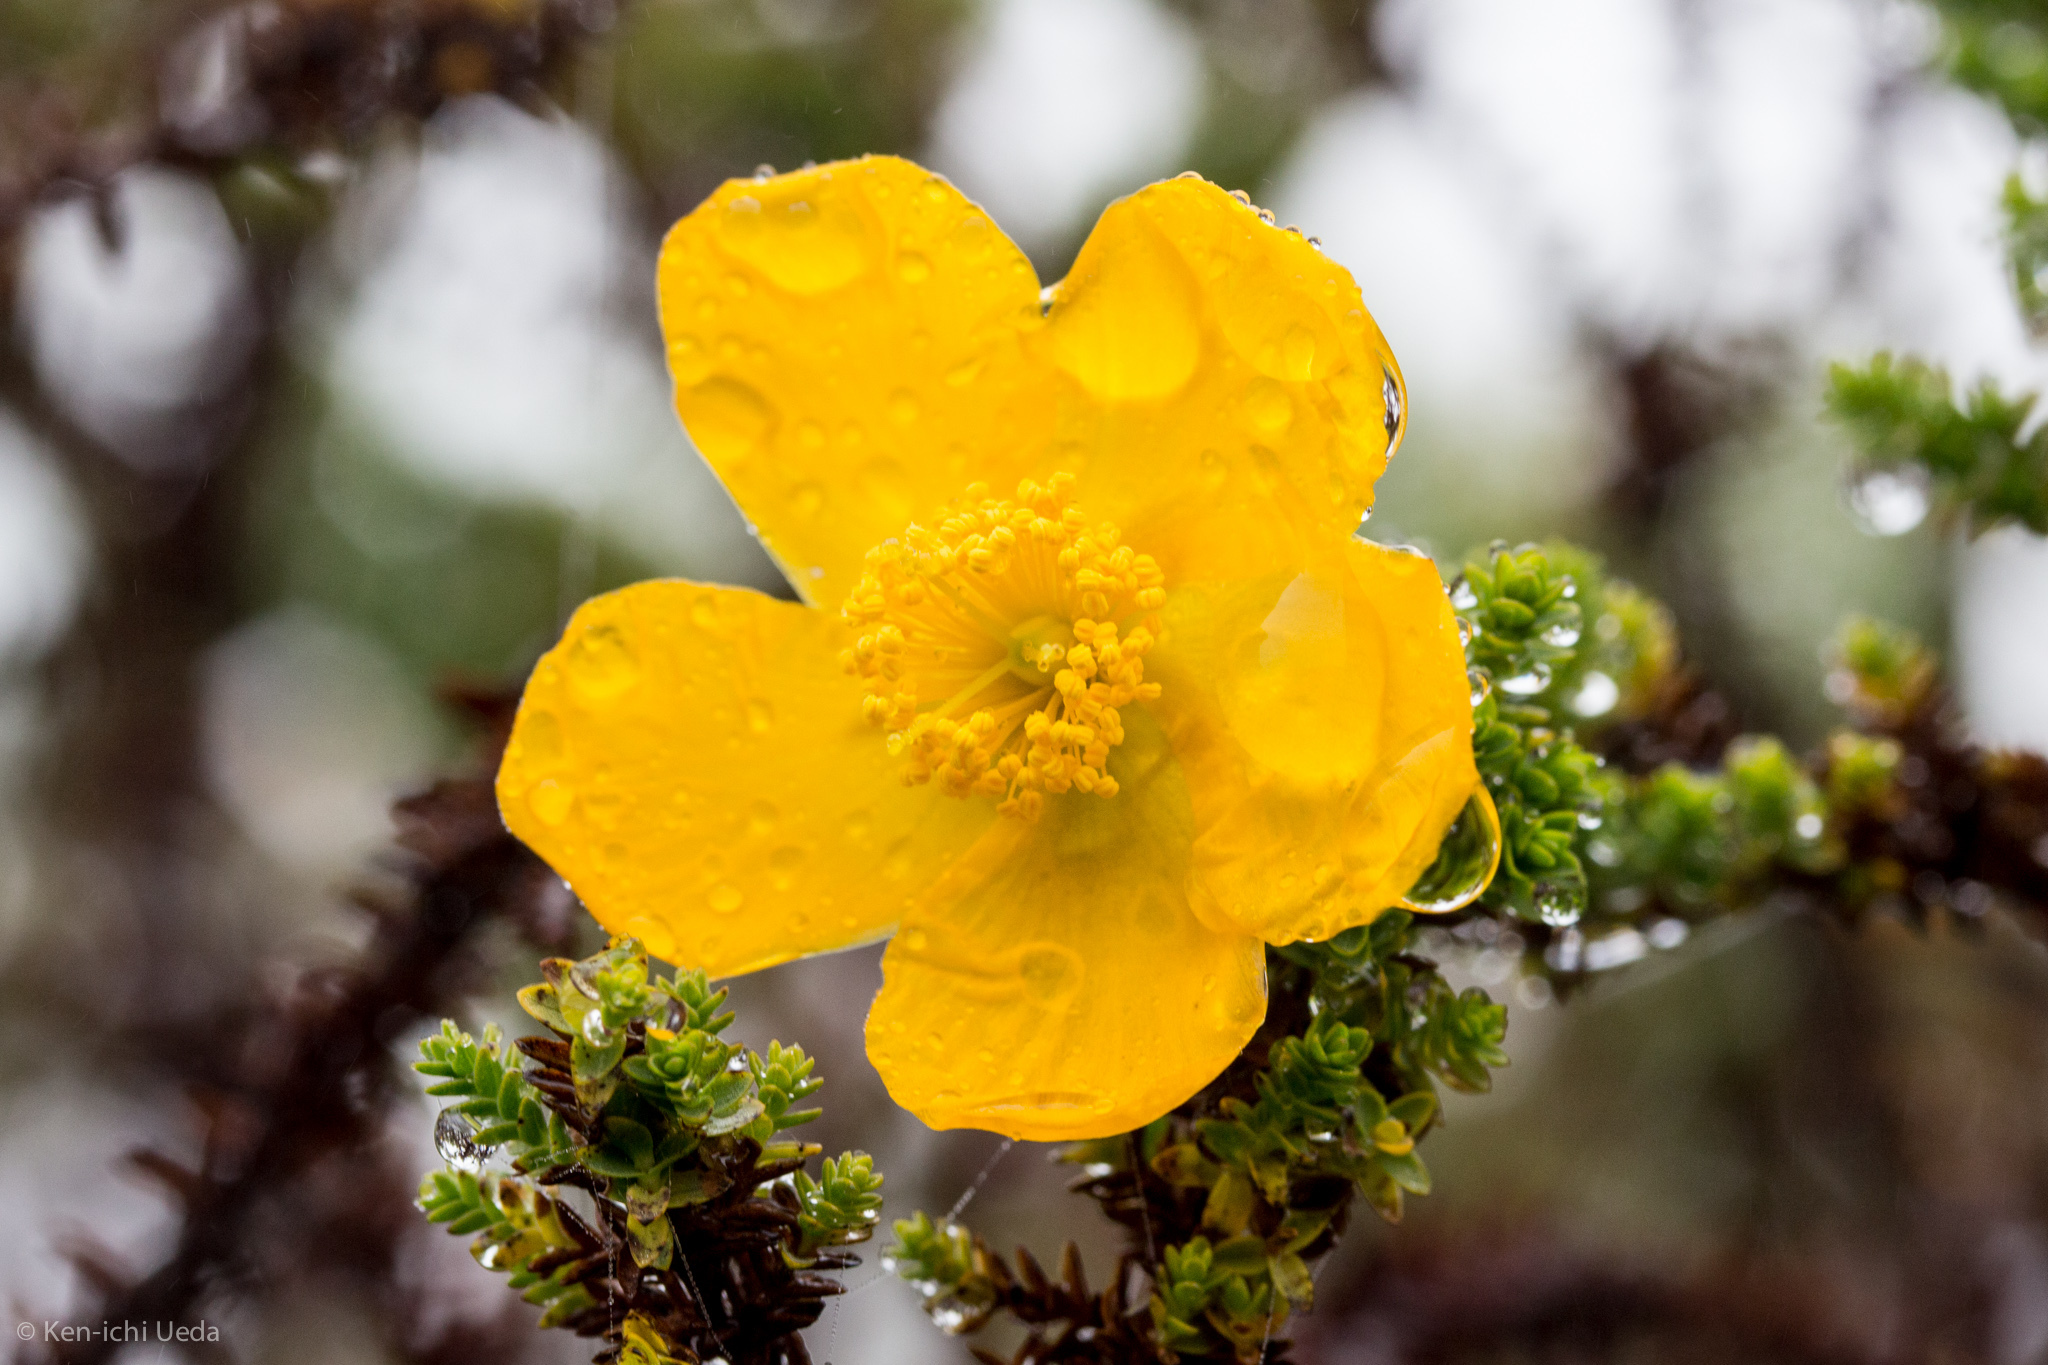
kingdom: Plantae
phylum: Tracheophyta
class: Magnoliopsida
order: Malpighiales
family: Hypericaceae
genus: Hypericum
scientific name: Hypericum goyanesii
